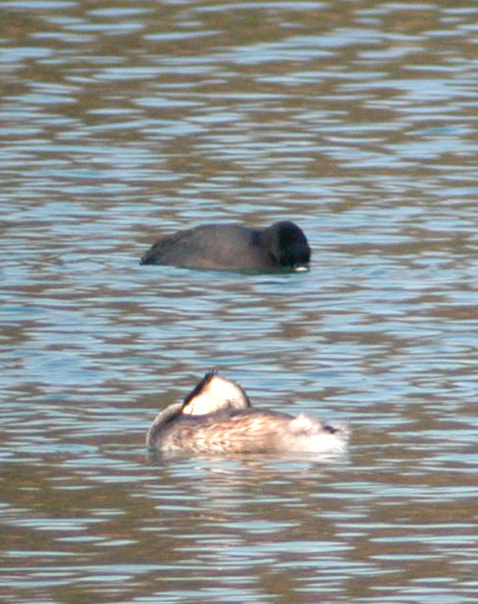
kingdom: Animalia
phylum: Chordata
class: Aves
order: Podicipediformes
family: Podicipedidae
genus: Podiceps
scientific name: Podiceps cristatus
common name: Great crested grebe
